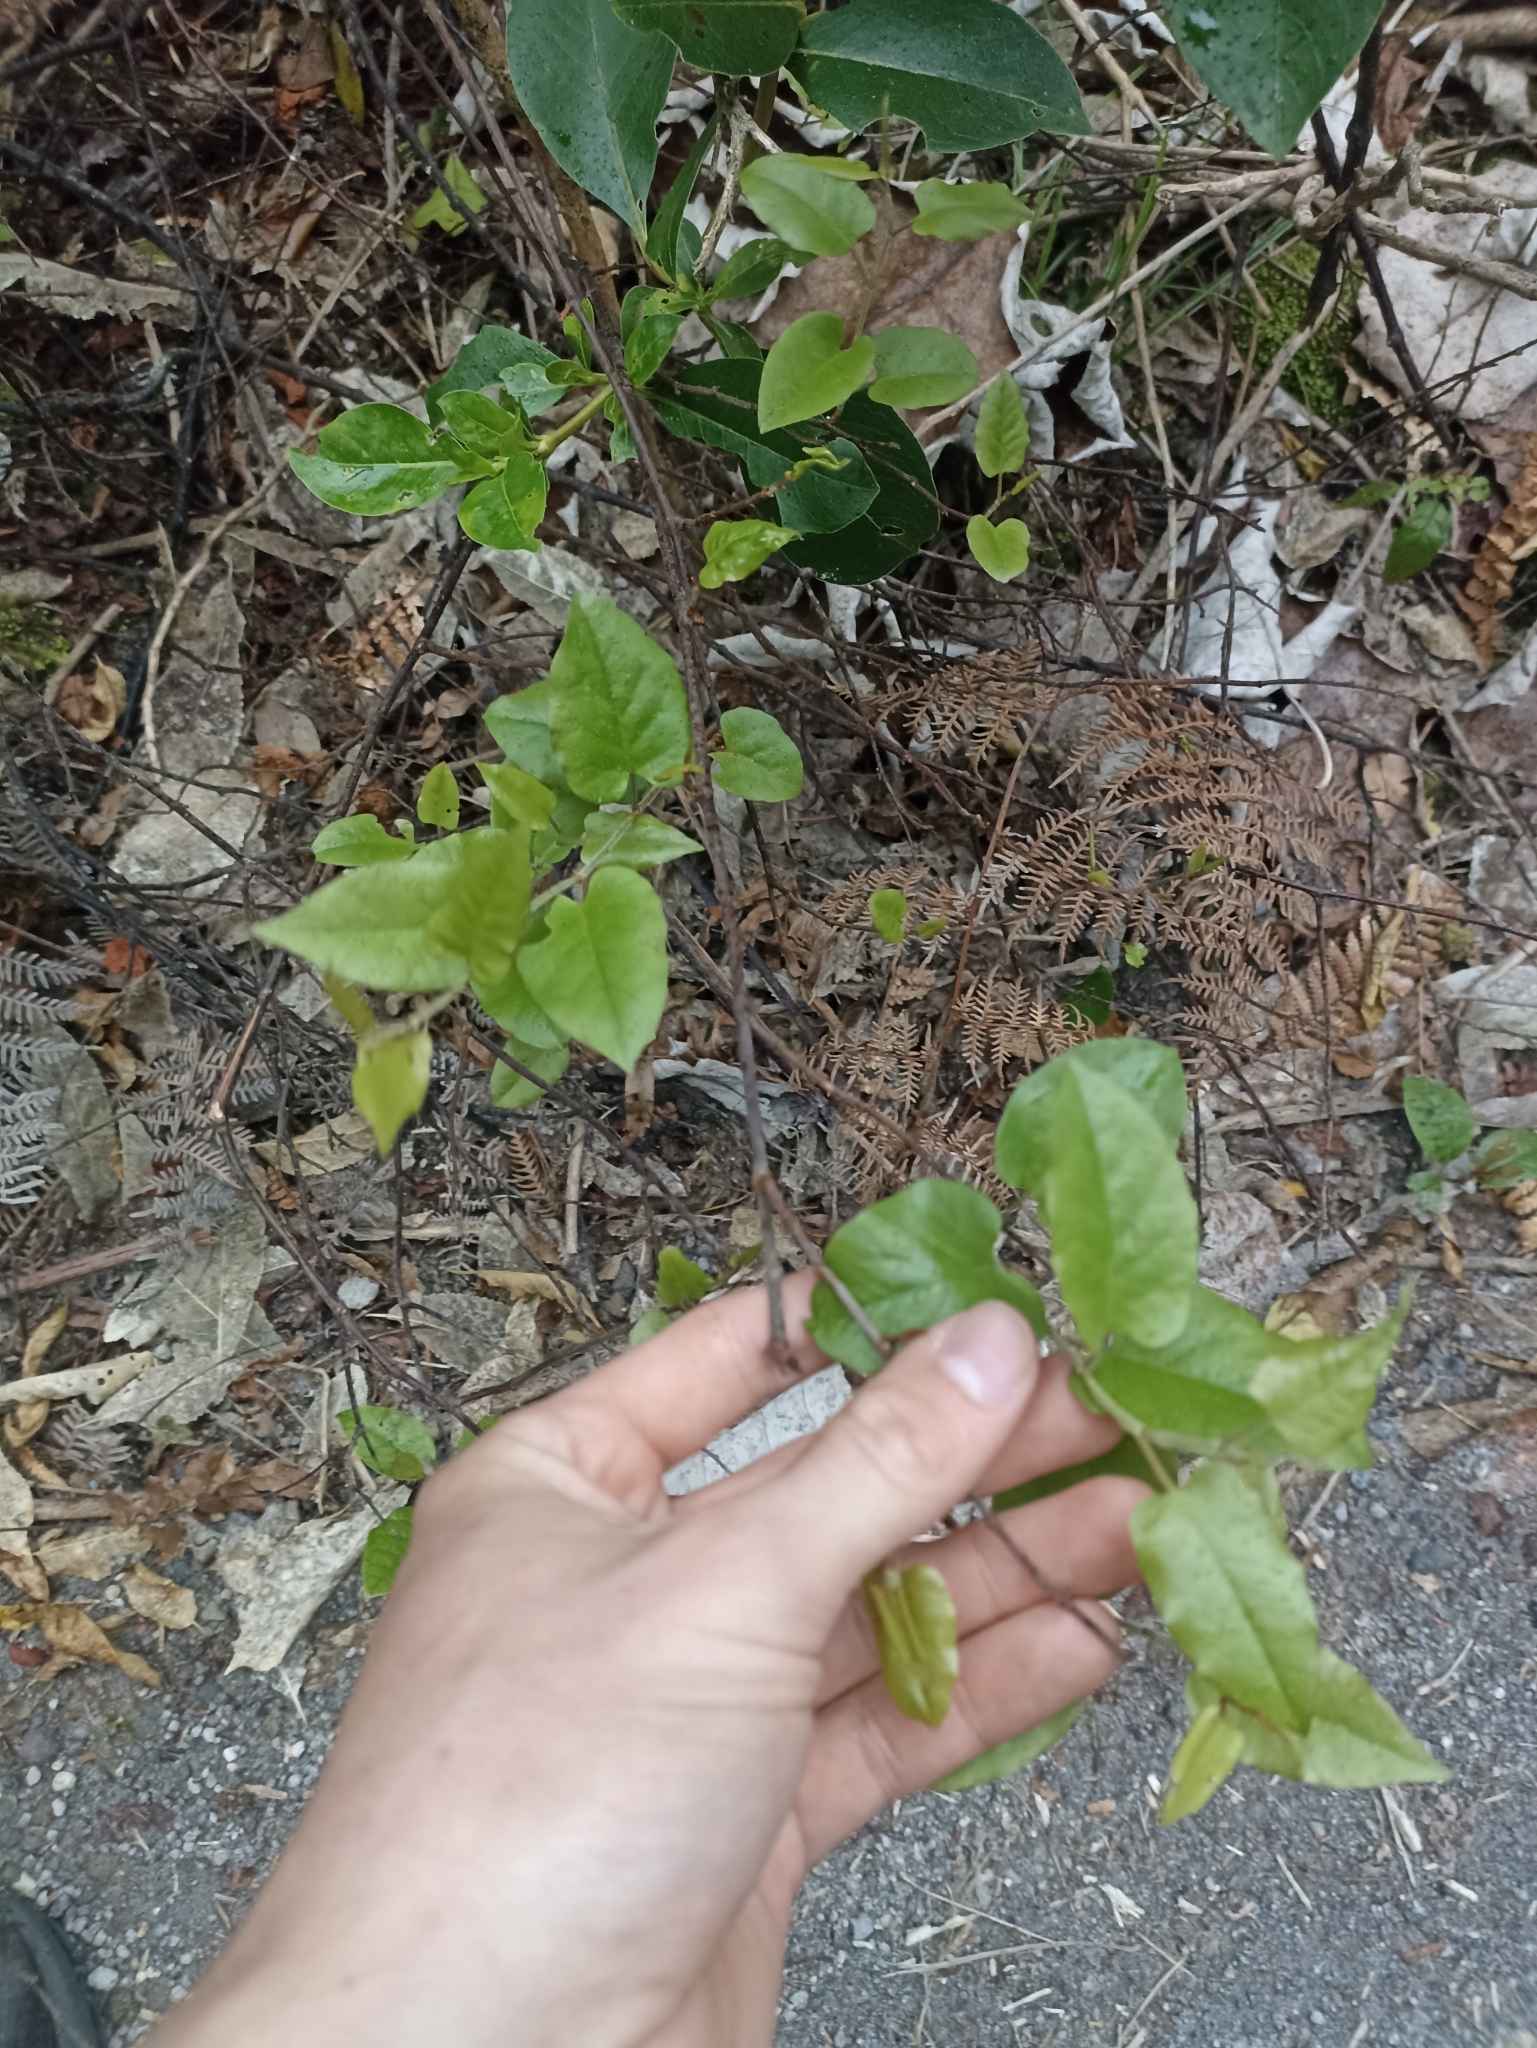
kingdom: Plantae
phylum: Tracheophyta
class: Magnoliopsida
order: Caryophyllales
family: Polygonaceae
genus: Muehlenbeckia
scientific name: Muehlenbeckia australis
